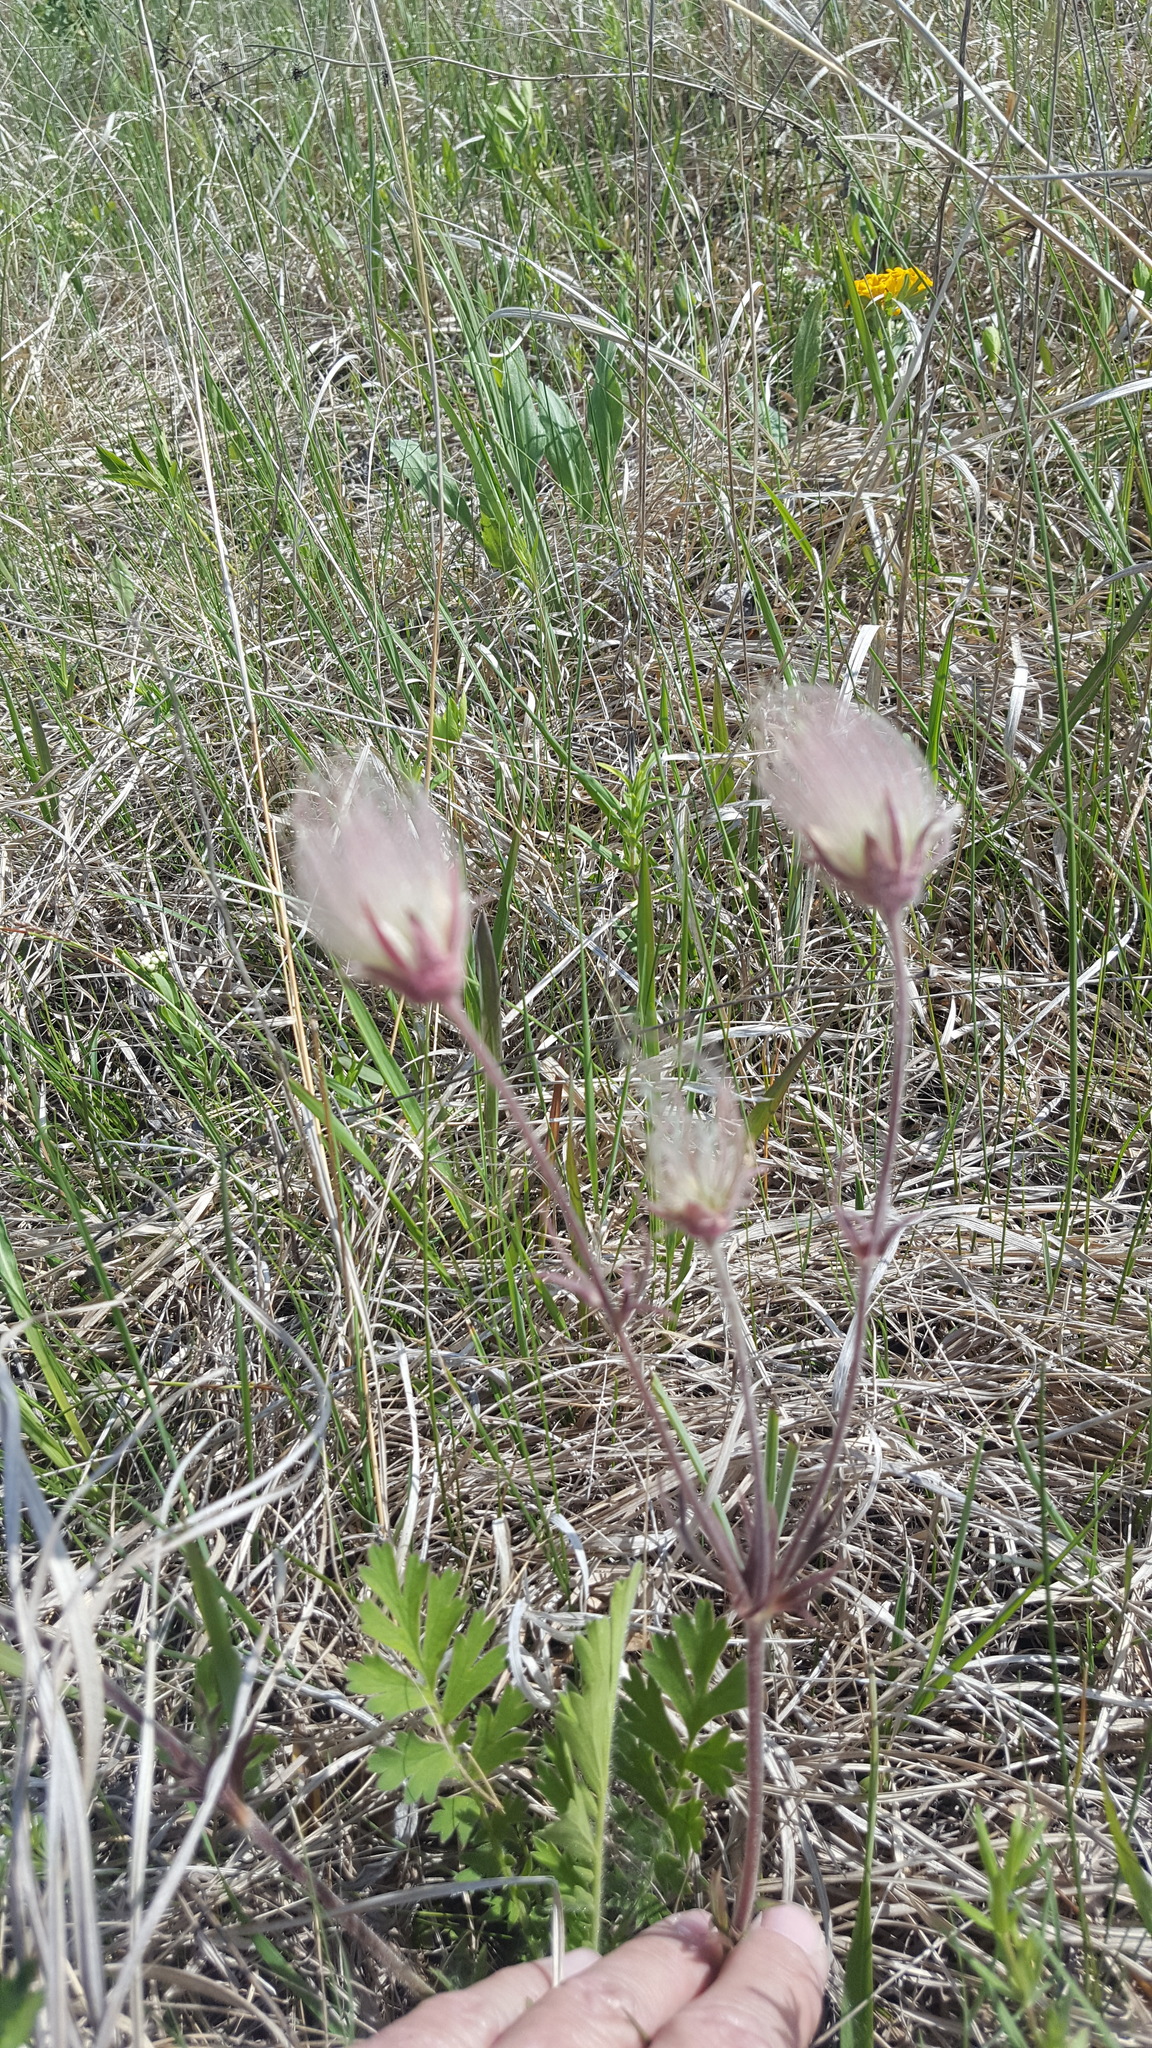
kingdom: Plantae
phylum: Tracheophyta
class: Magnoliopsida
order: Rosales
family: Rosaceae
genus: Geum
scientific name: Geum triflorum
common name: Old man's whiskers
